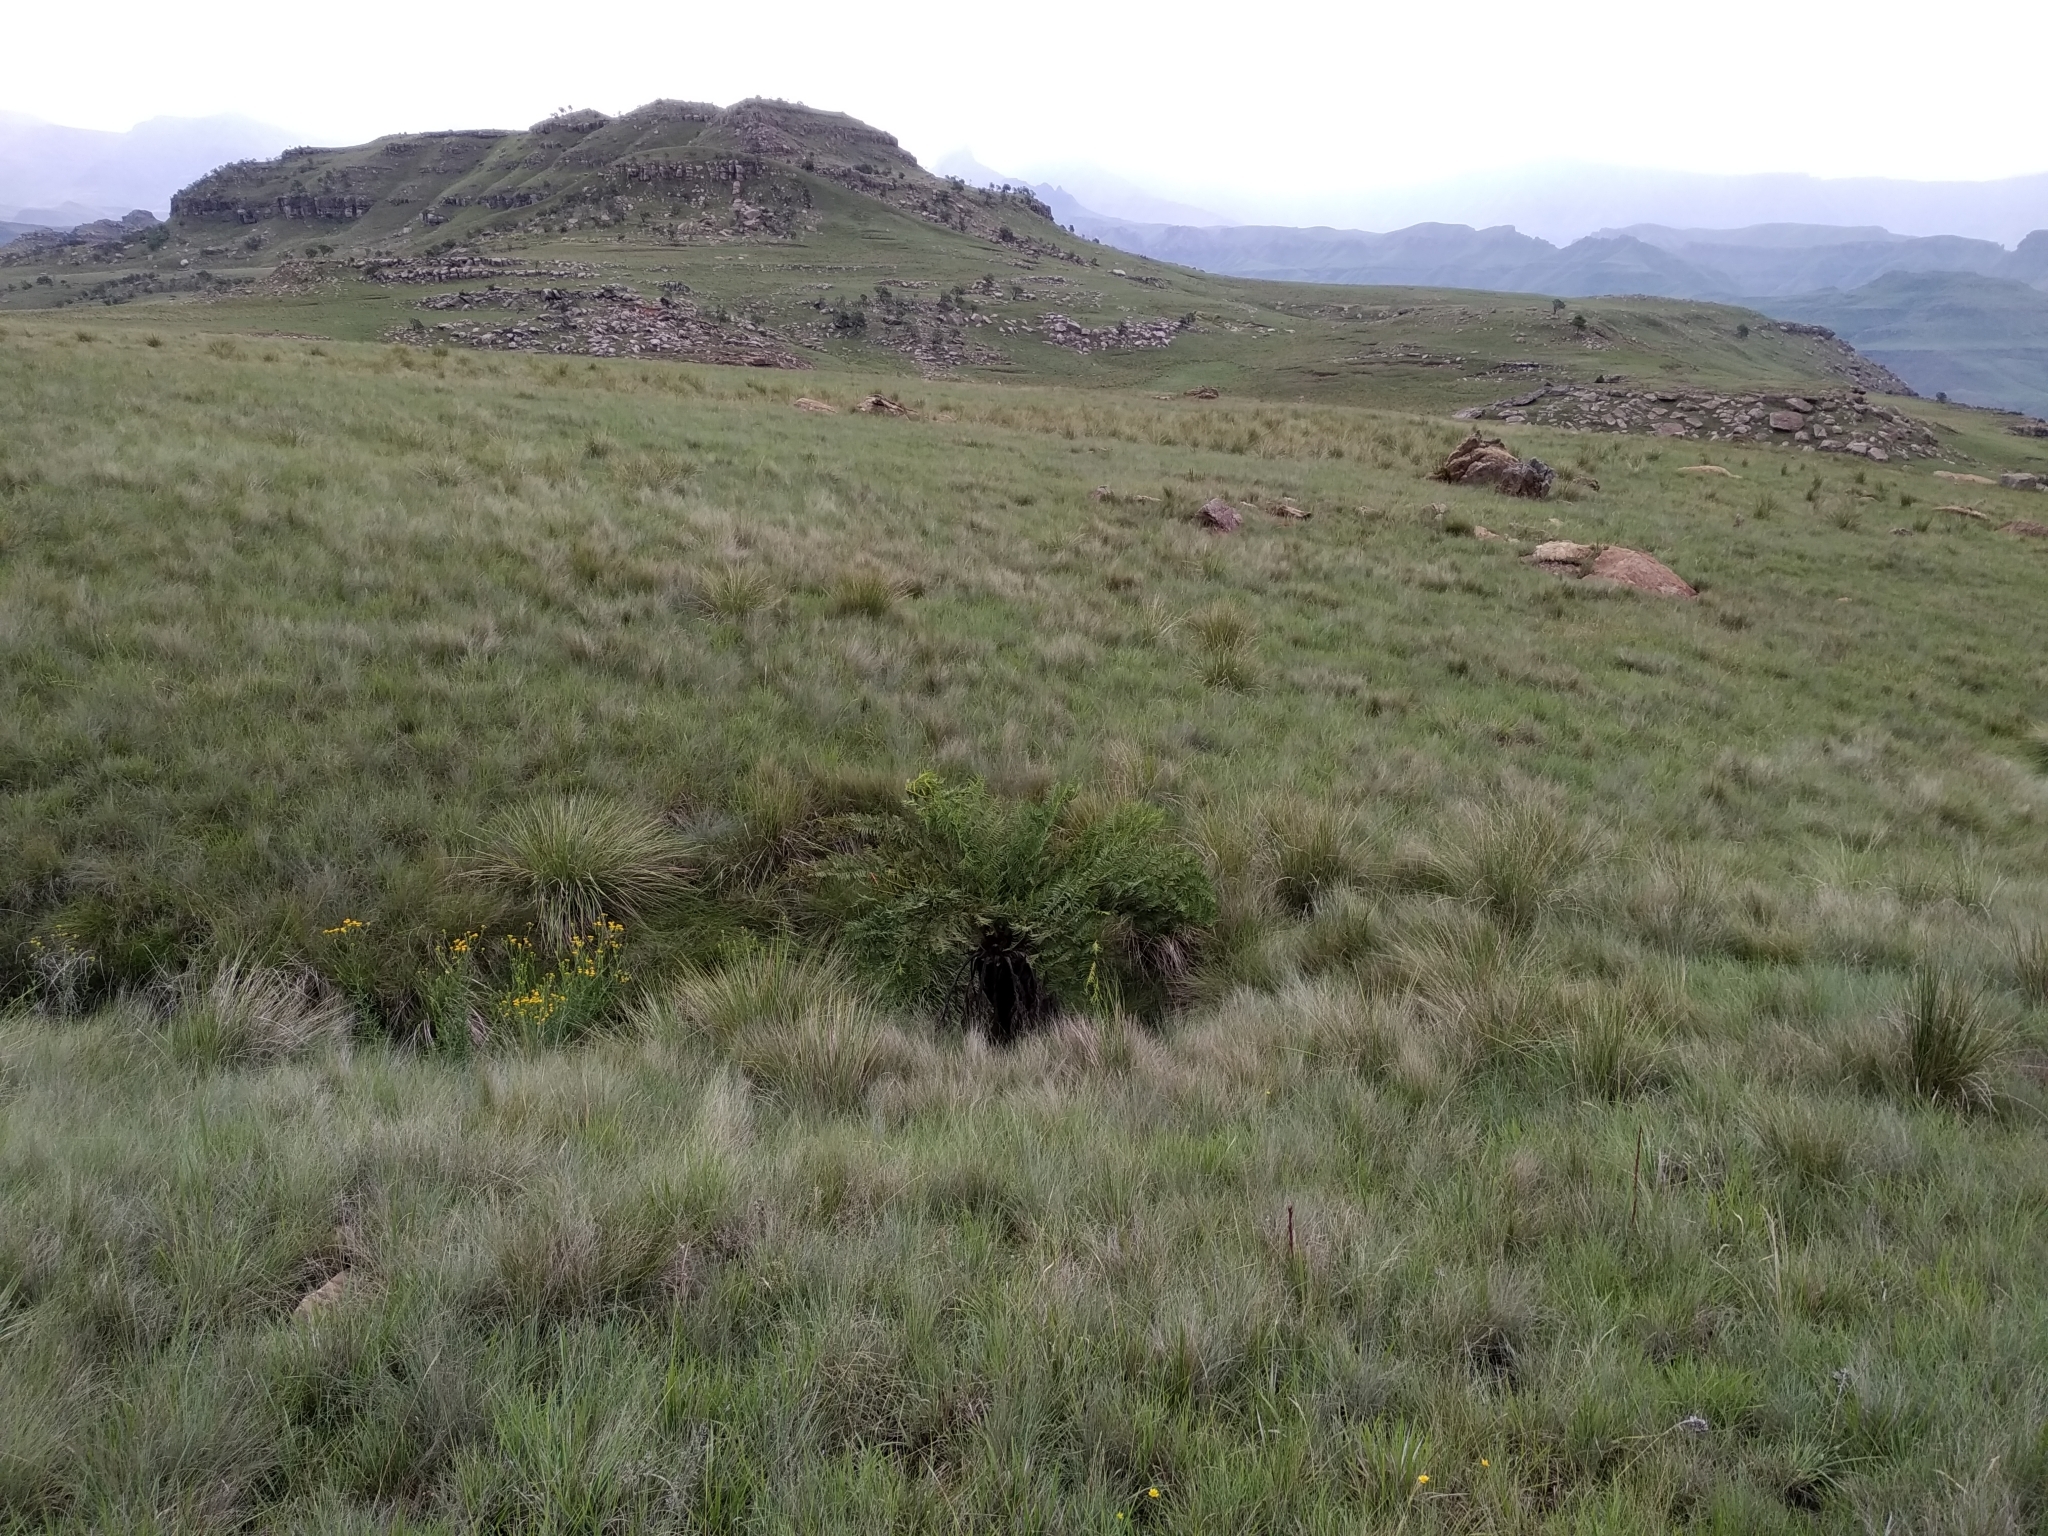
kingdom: Plantae
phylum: Tracheophyta
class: Polypodiopsida
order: Cyatheales
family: Cyatheaceae
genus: Alsophila
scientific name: Alsophila dregei
